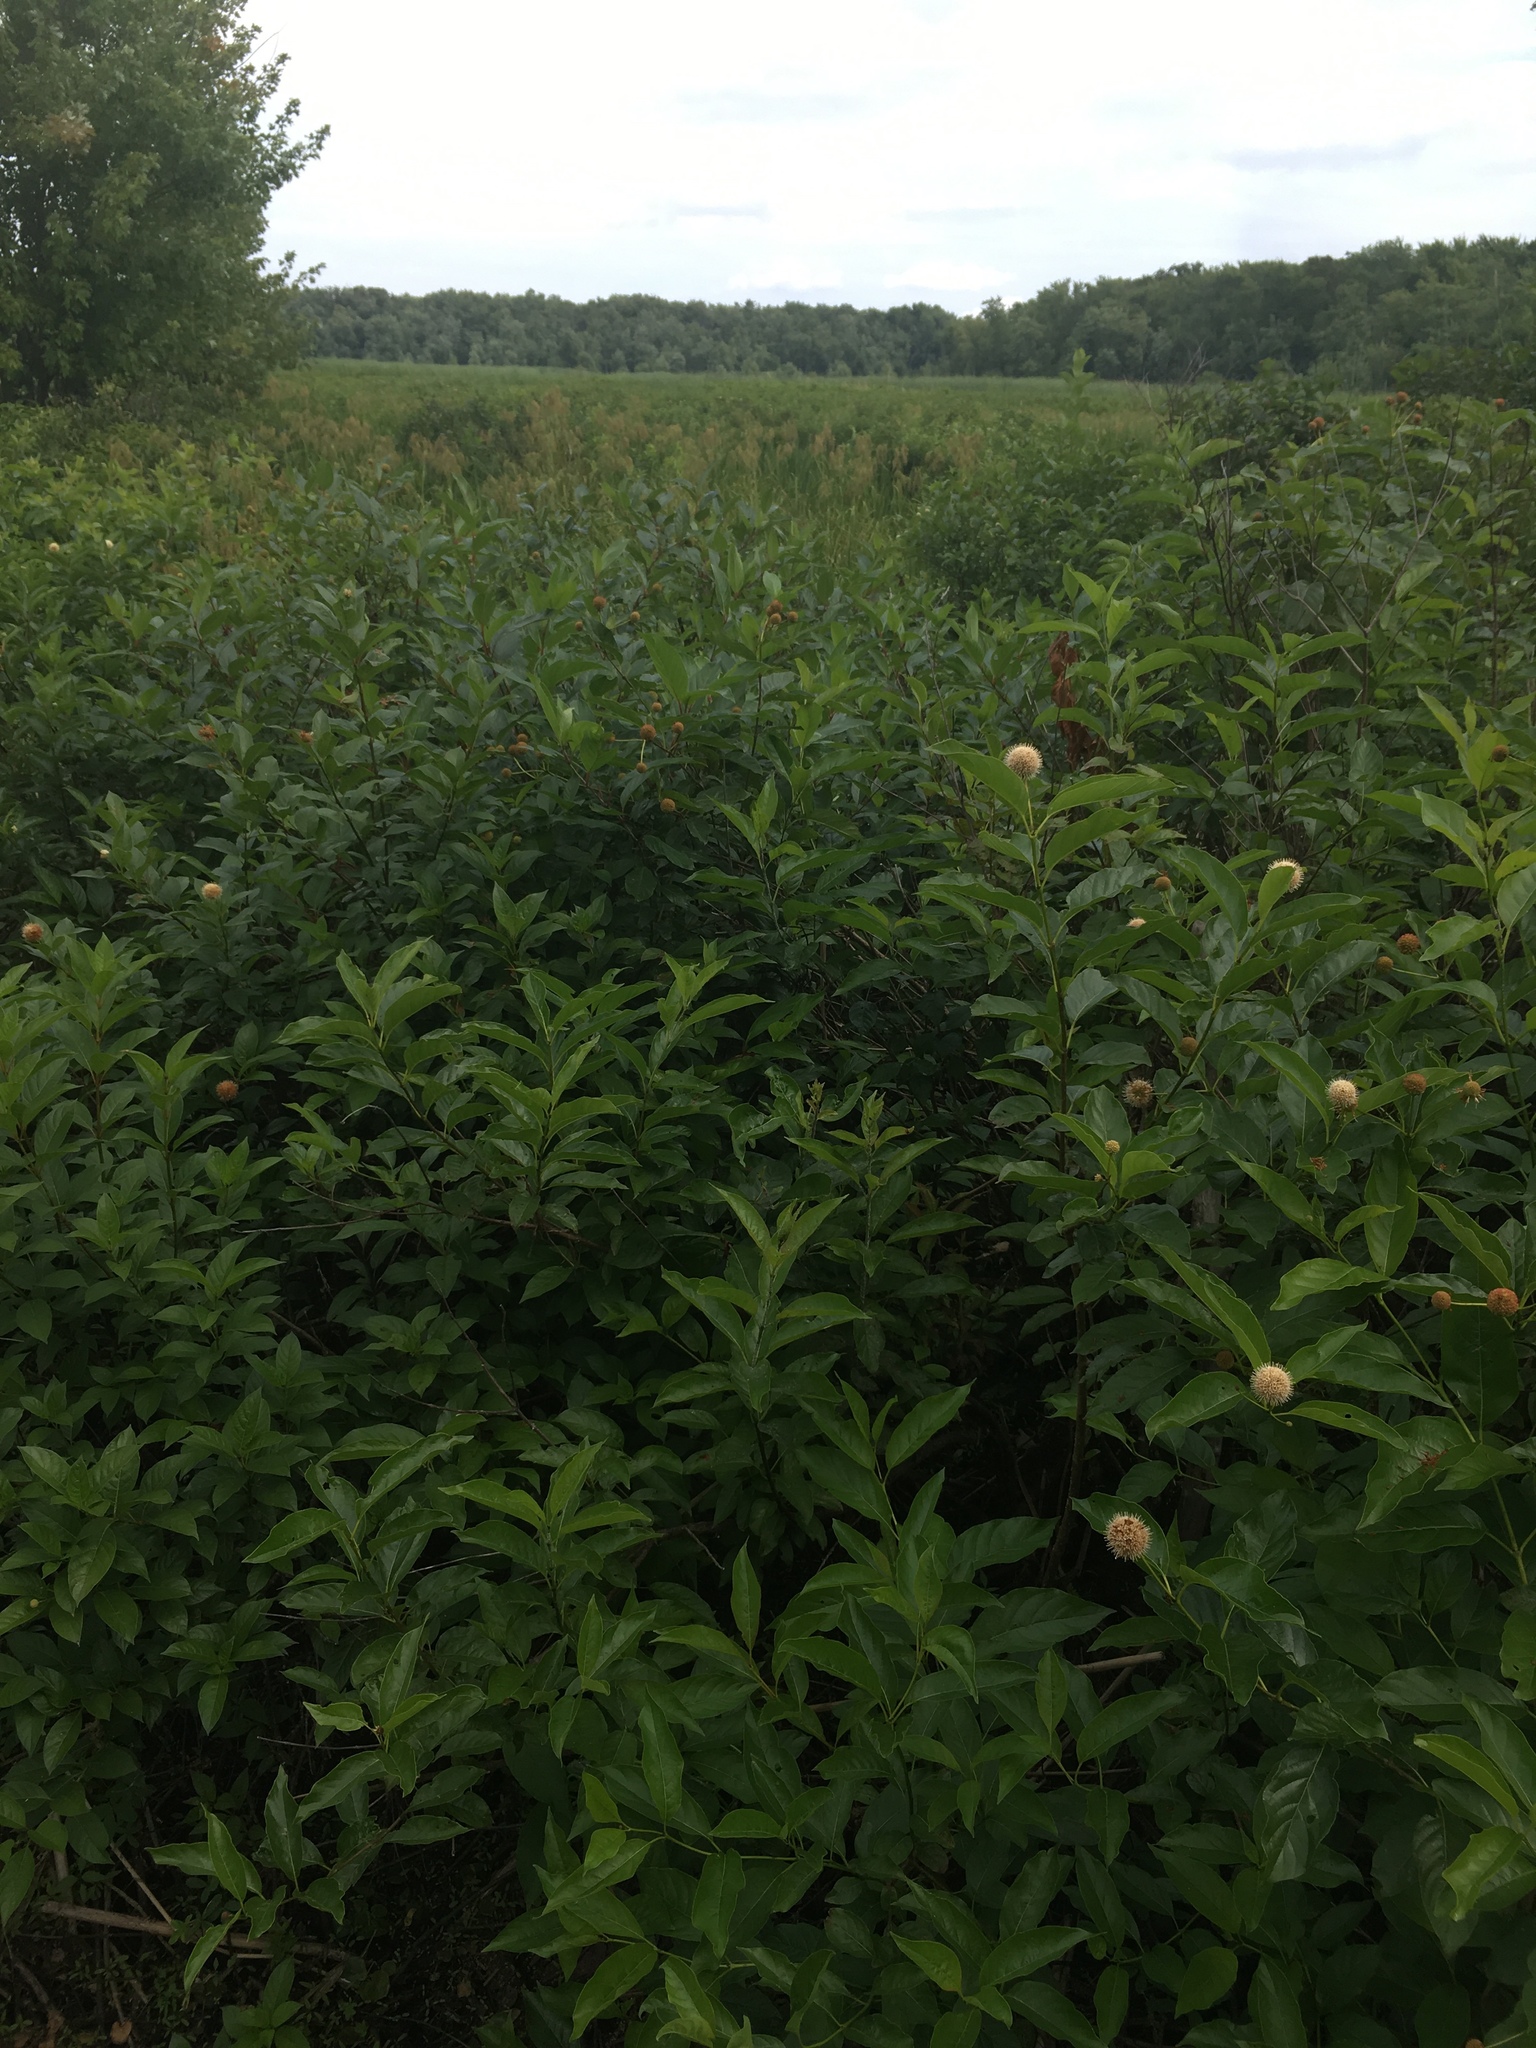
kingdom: Plantae
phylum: Tracheophyta
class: Magnoliopsida
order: Gentianales
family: Rubiaceae
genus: Cephalanthus
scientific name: Cephalanthus occidentalis
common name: Button-willow
